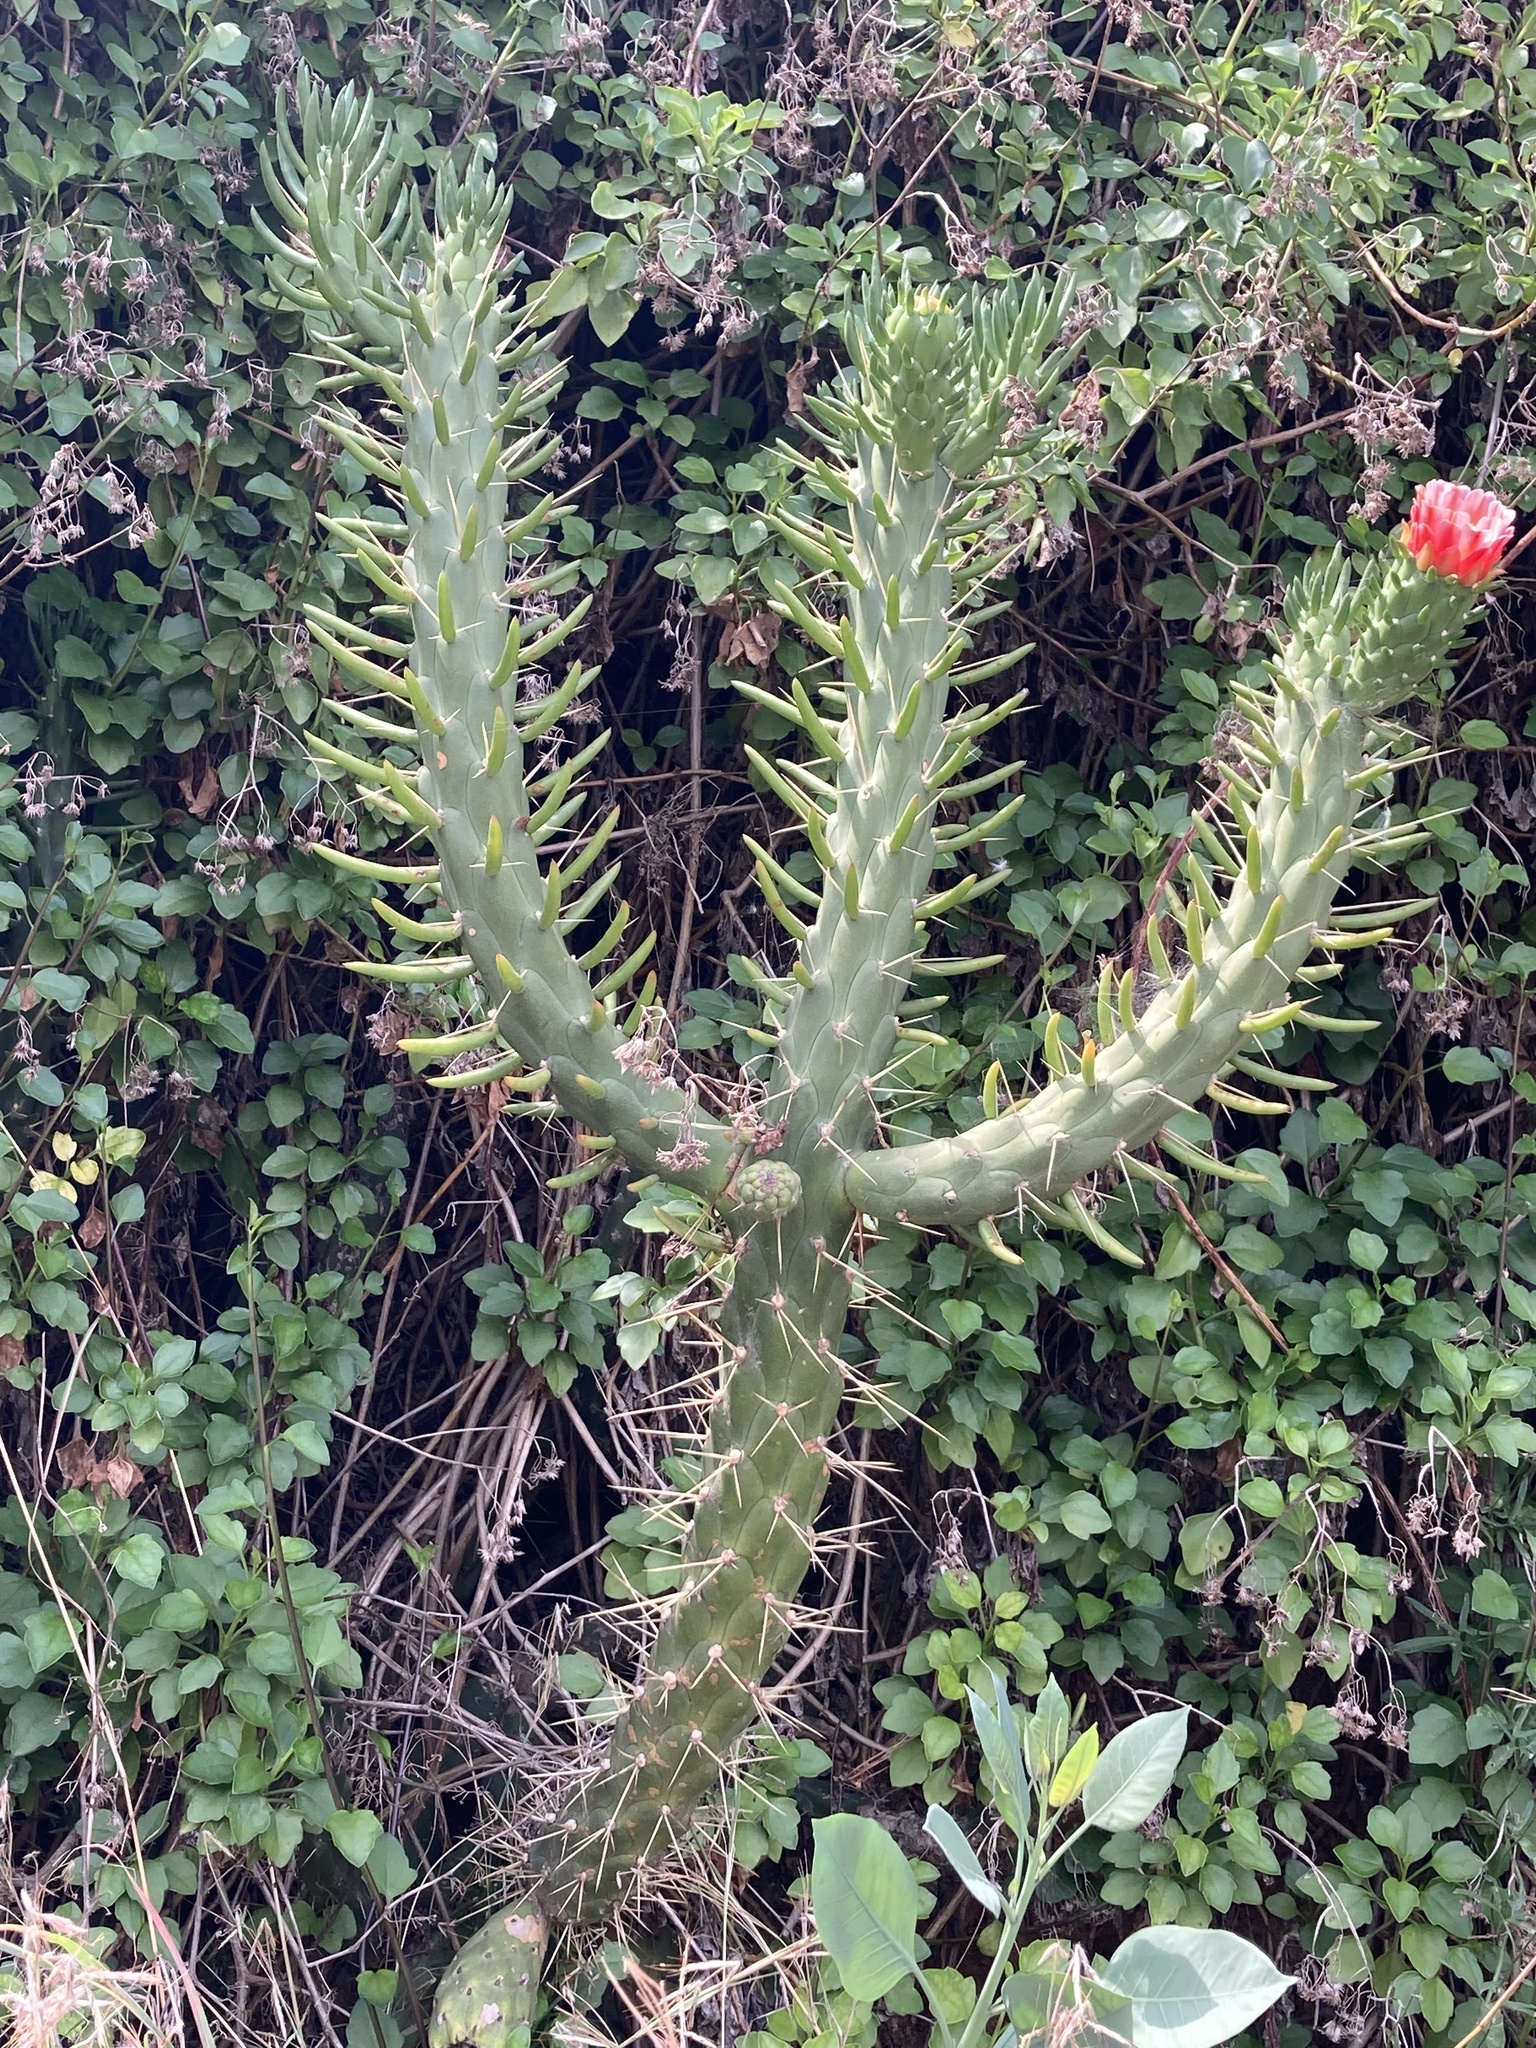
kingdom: Plantae
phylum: Tracheophyta
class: Magnoliopsida
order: Caryophyllales
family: Cactaceae
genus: Austrocylindropuntia
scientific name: Austrocylindropuntia subulata
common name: Eve's needle cactus
